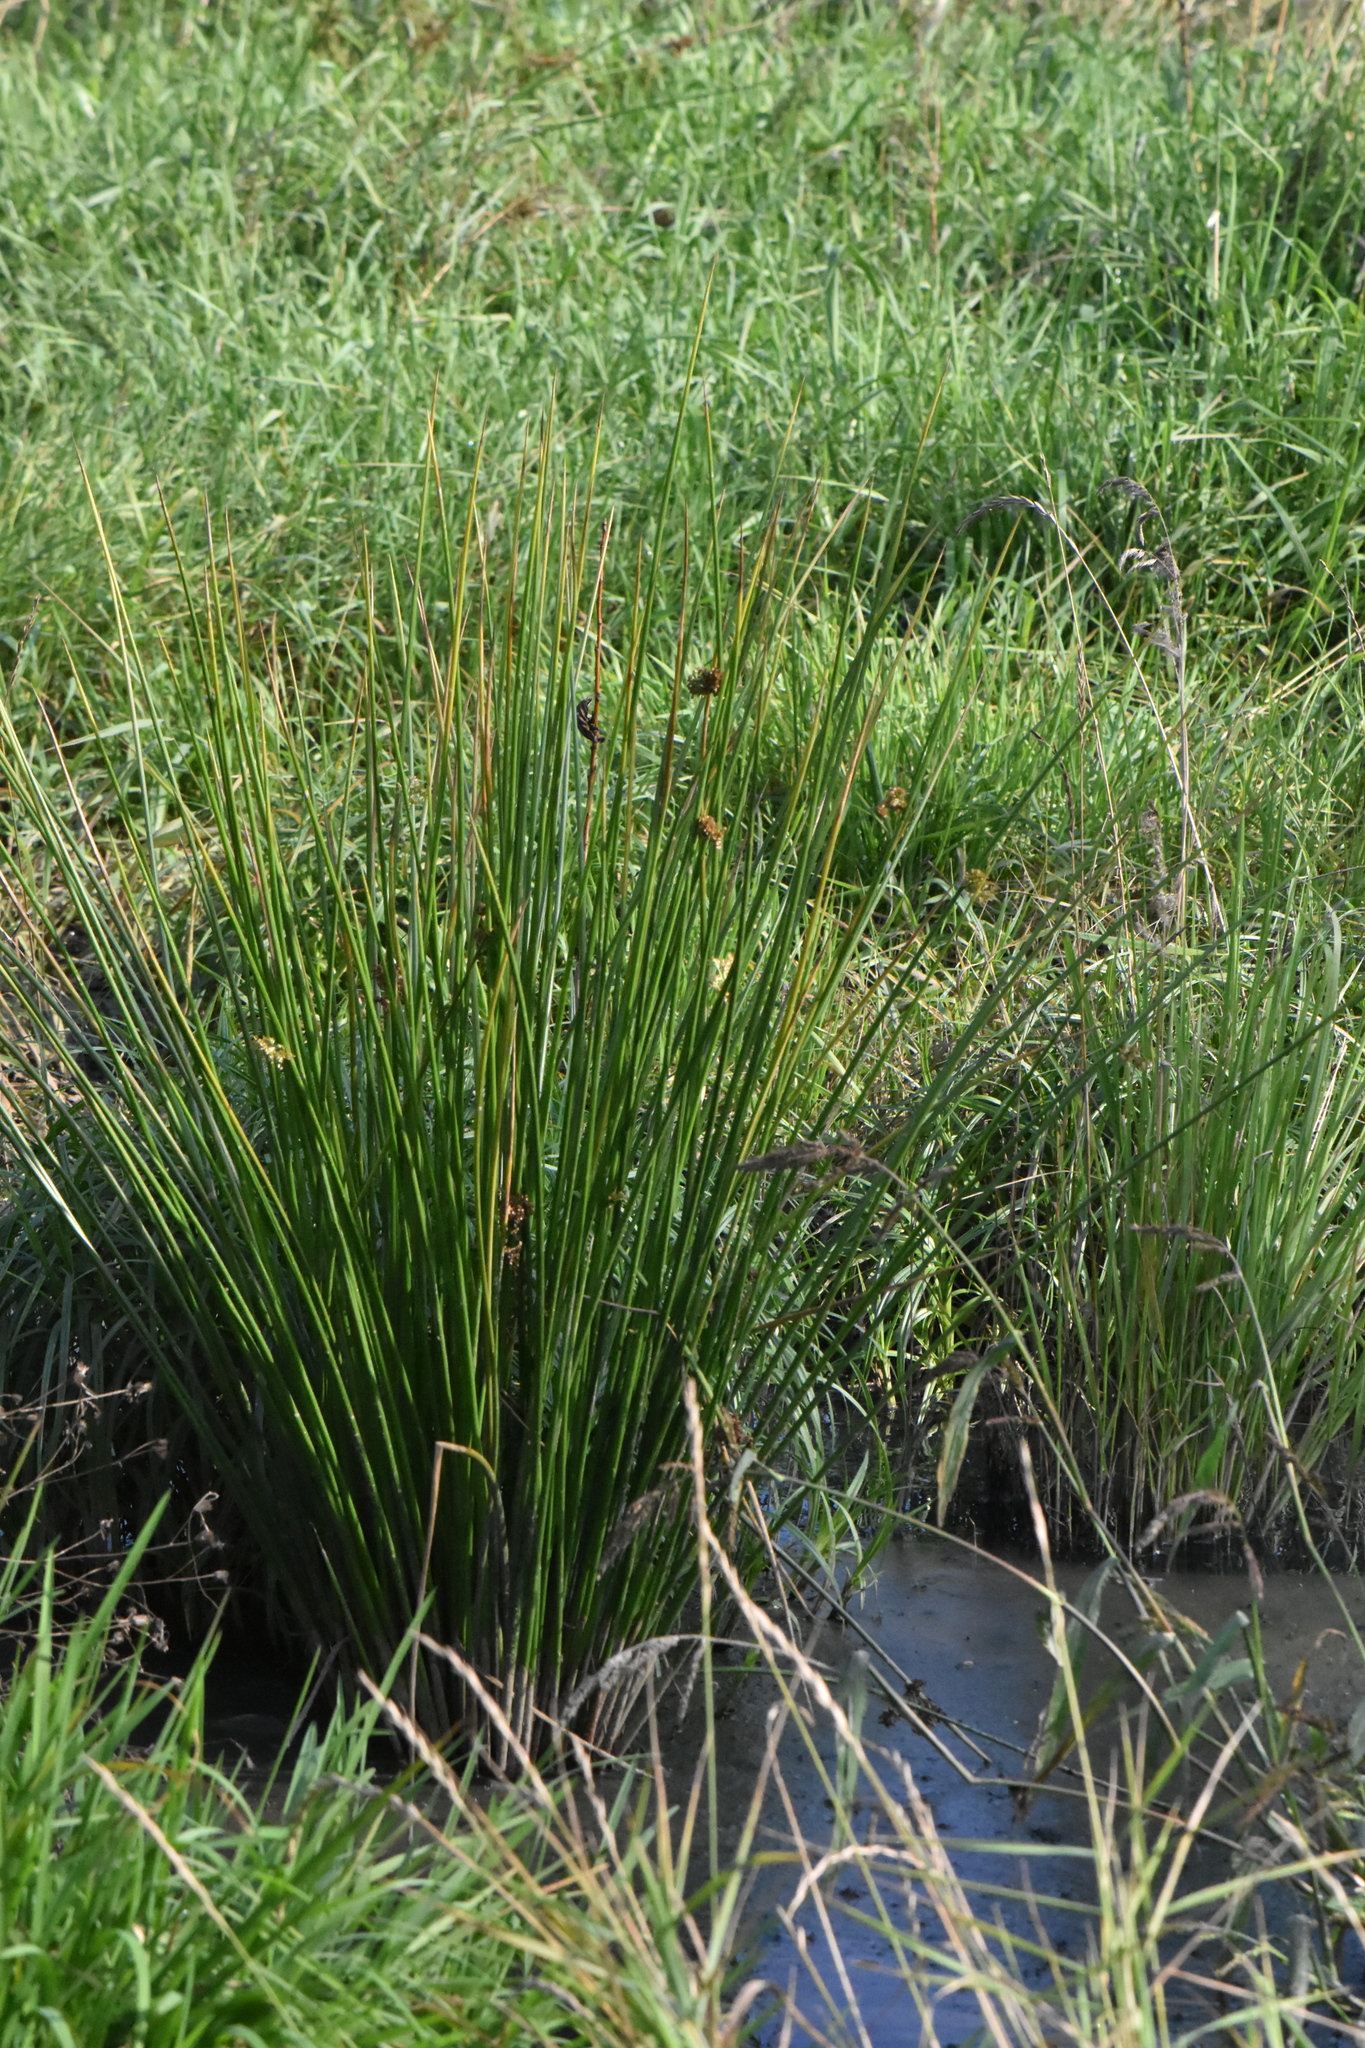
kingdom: Plantae
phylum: Tracheophyta
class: Liliopsida
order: Poales
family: Juncaceae
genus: Juncus
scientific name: Juncus effusus
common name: Soft rush
